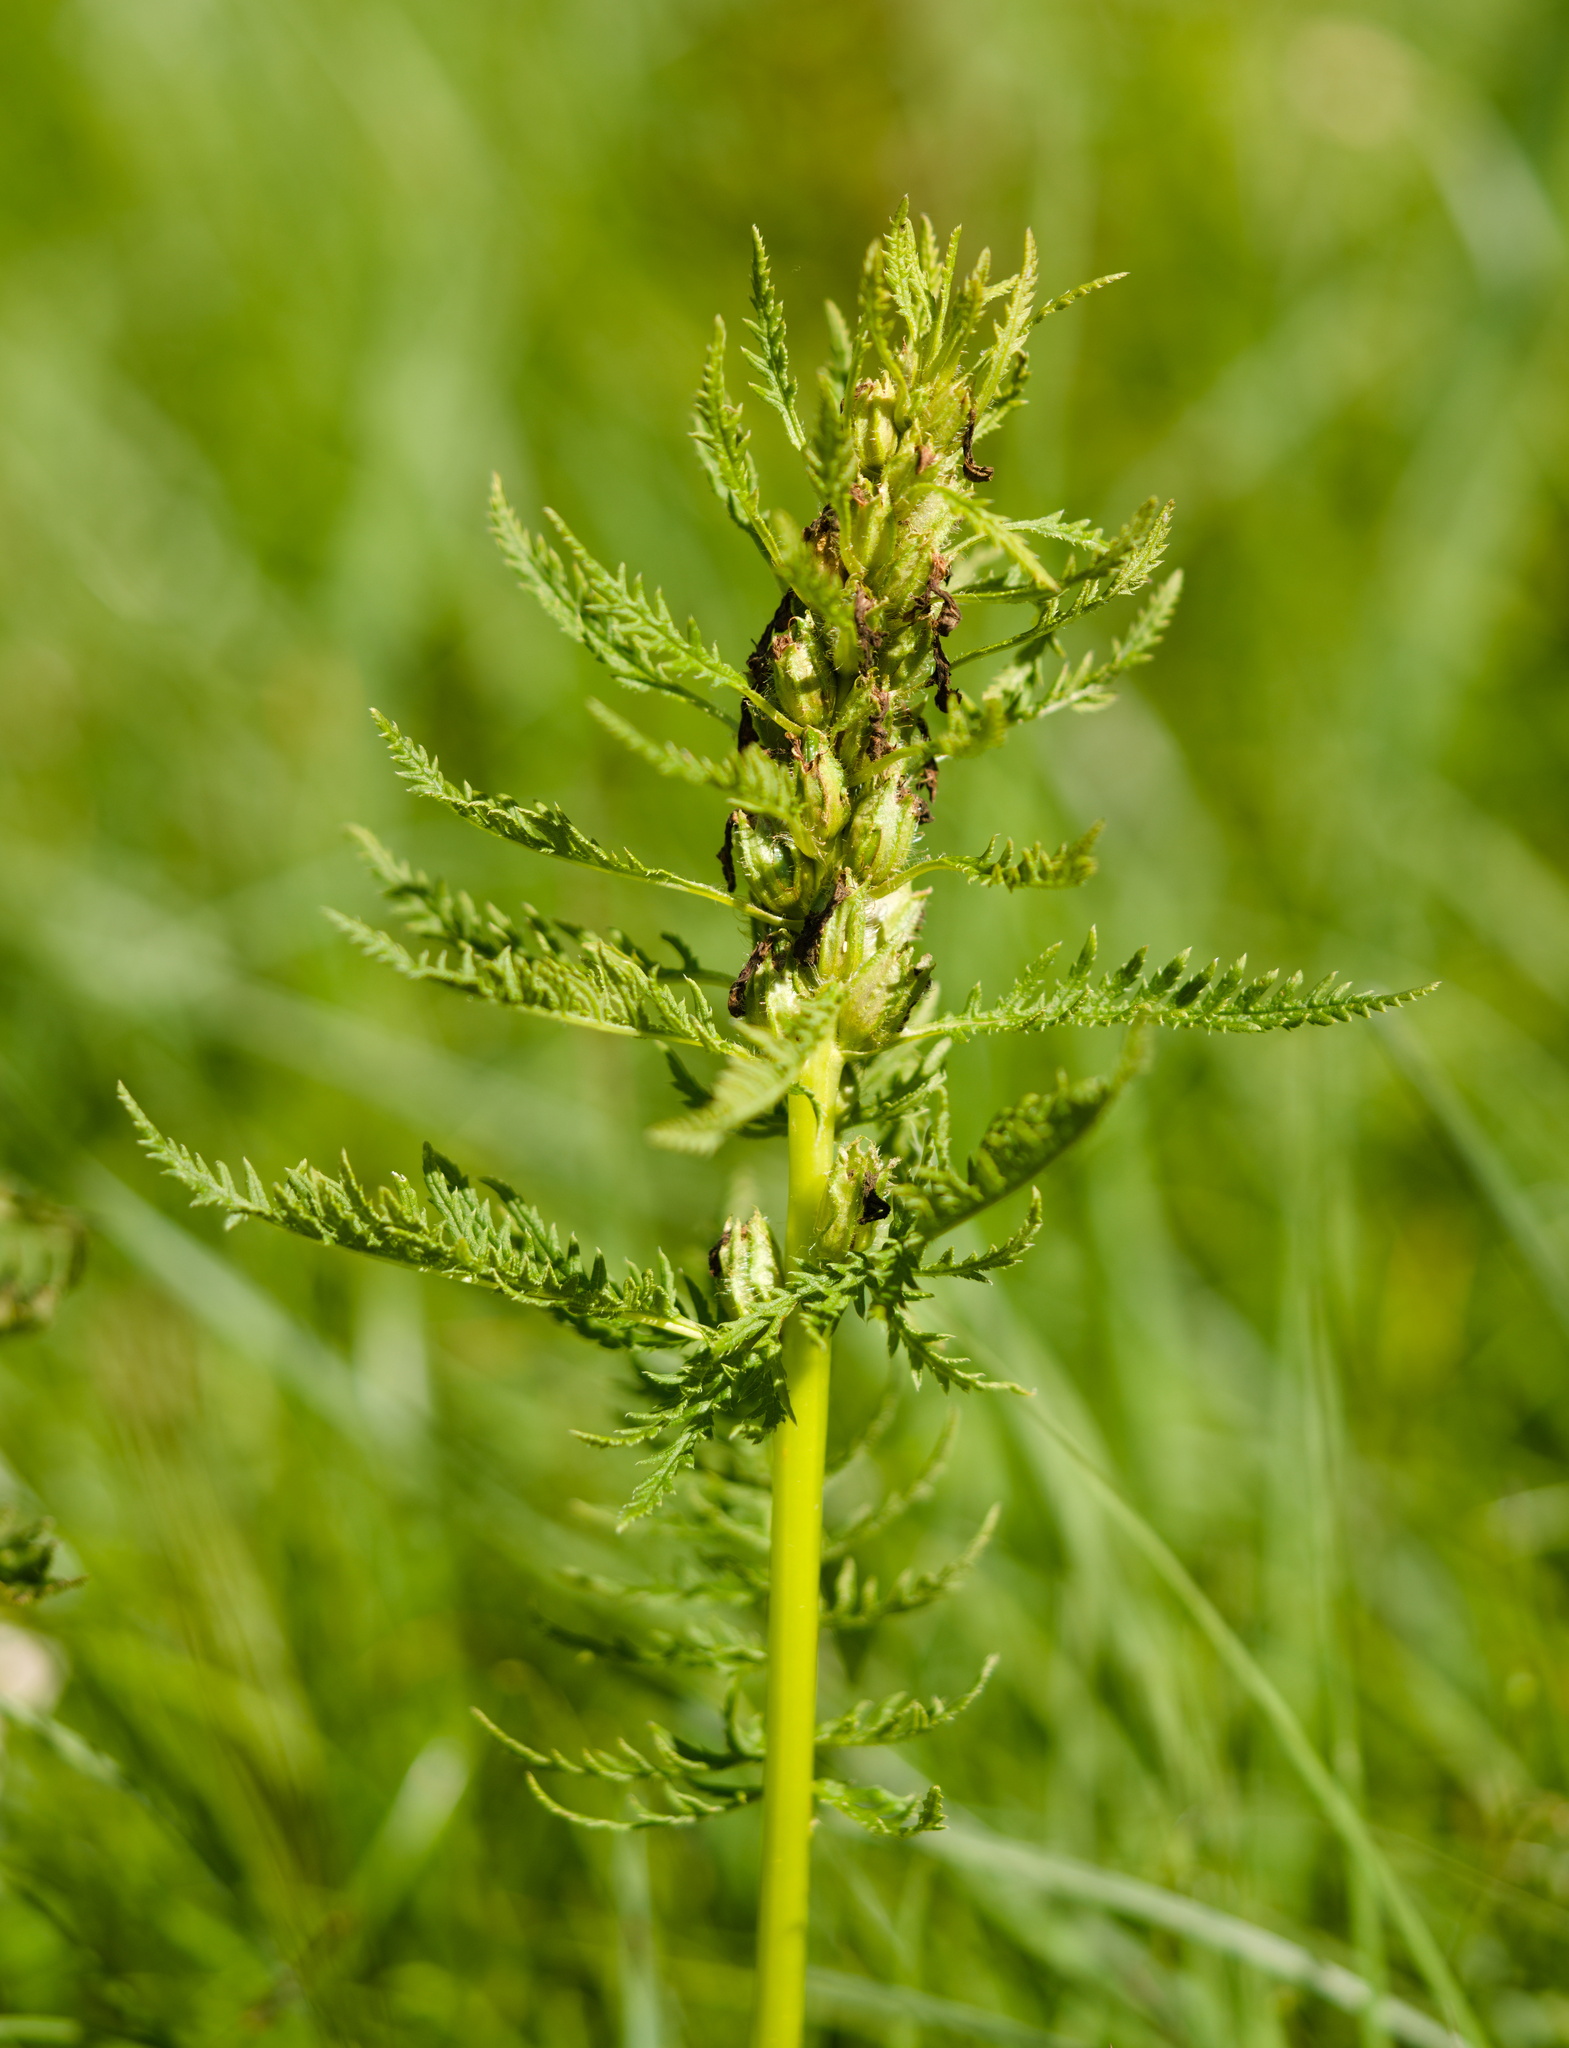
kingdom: Plantae
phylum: Tracheophyta
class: Magnoliopsida
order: Lamiales
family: Orobanchaceae
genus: Pedicularis
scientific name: Pedicularis foliosa
